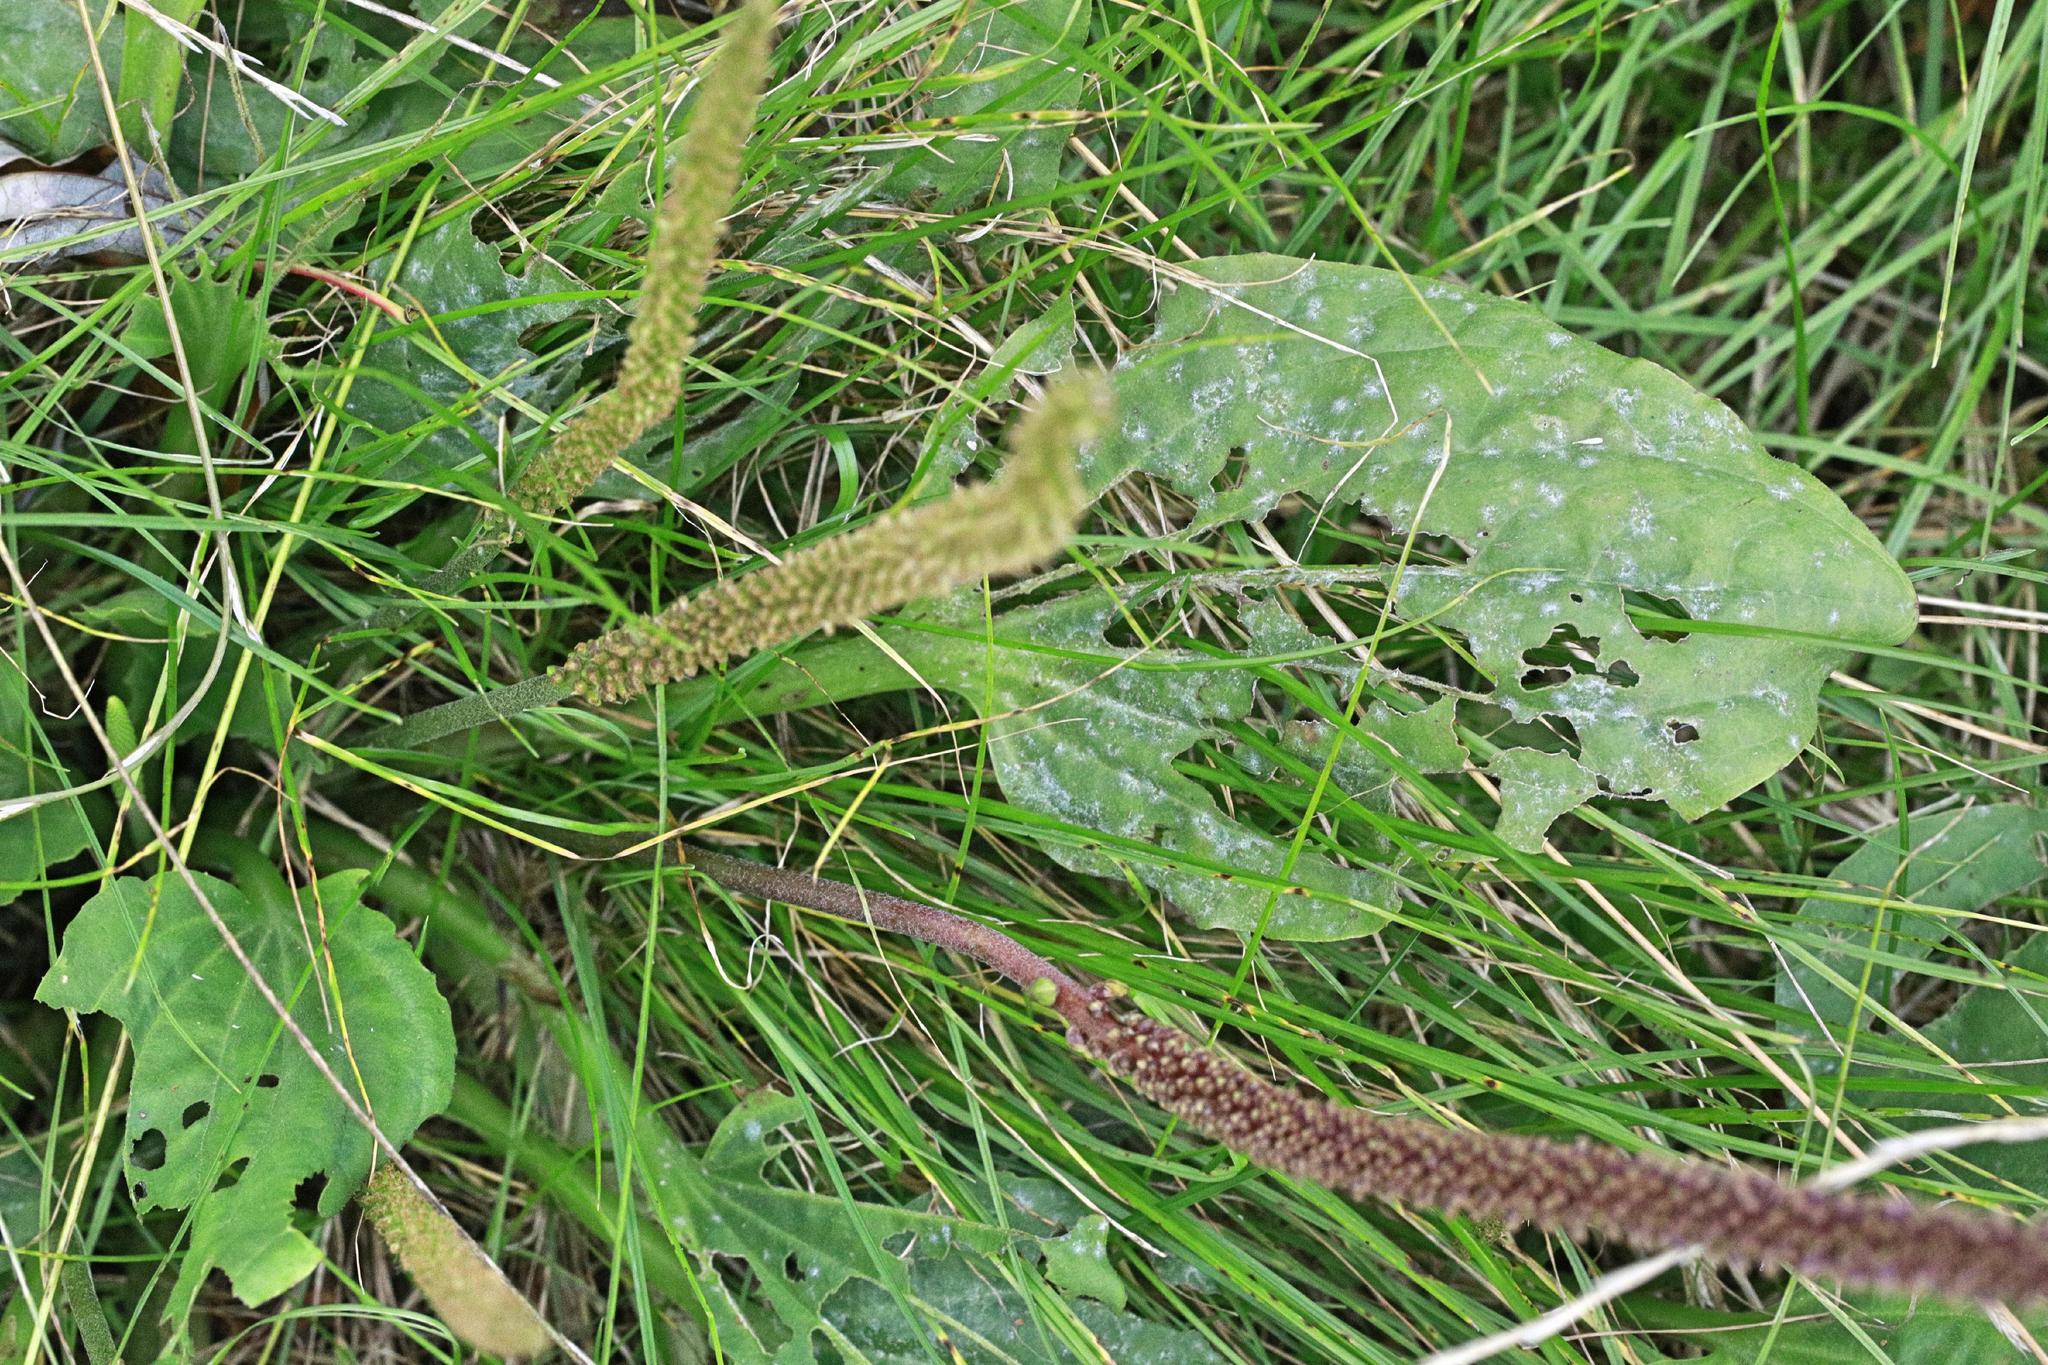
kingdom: Plantae
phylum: Tracheophyta
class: Magnoliopsida
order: Lamiales
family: Plantaginaceae
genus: Plantago
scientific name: Plantago major
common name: Common plantain
